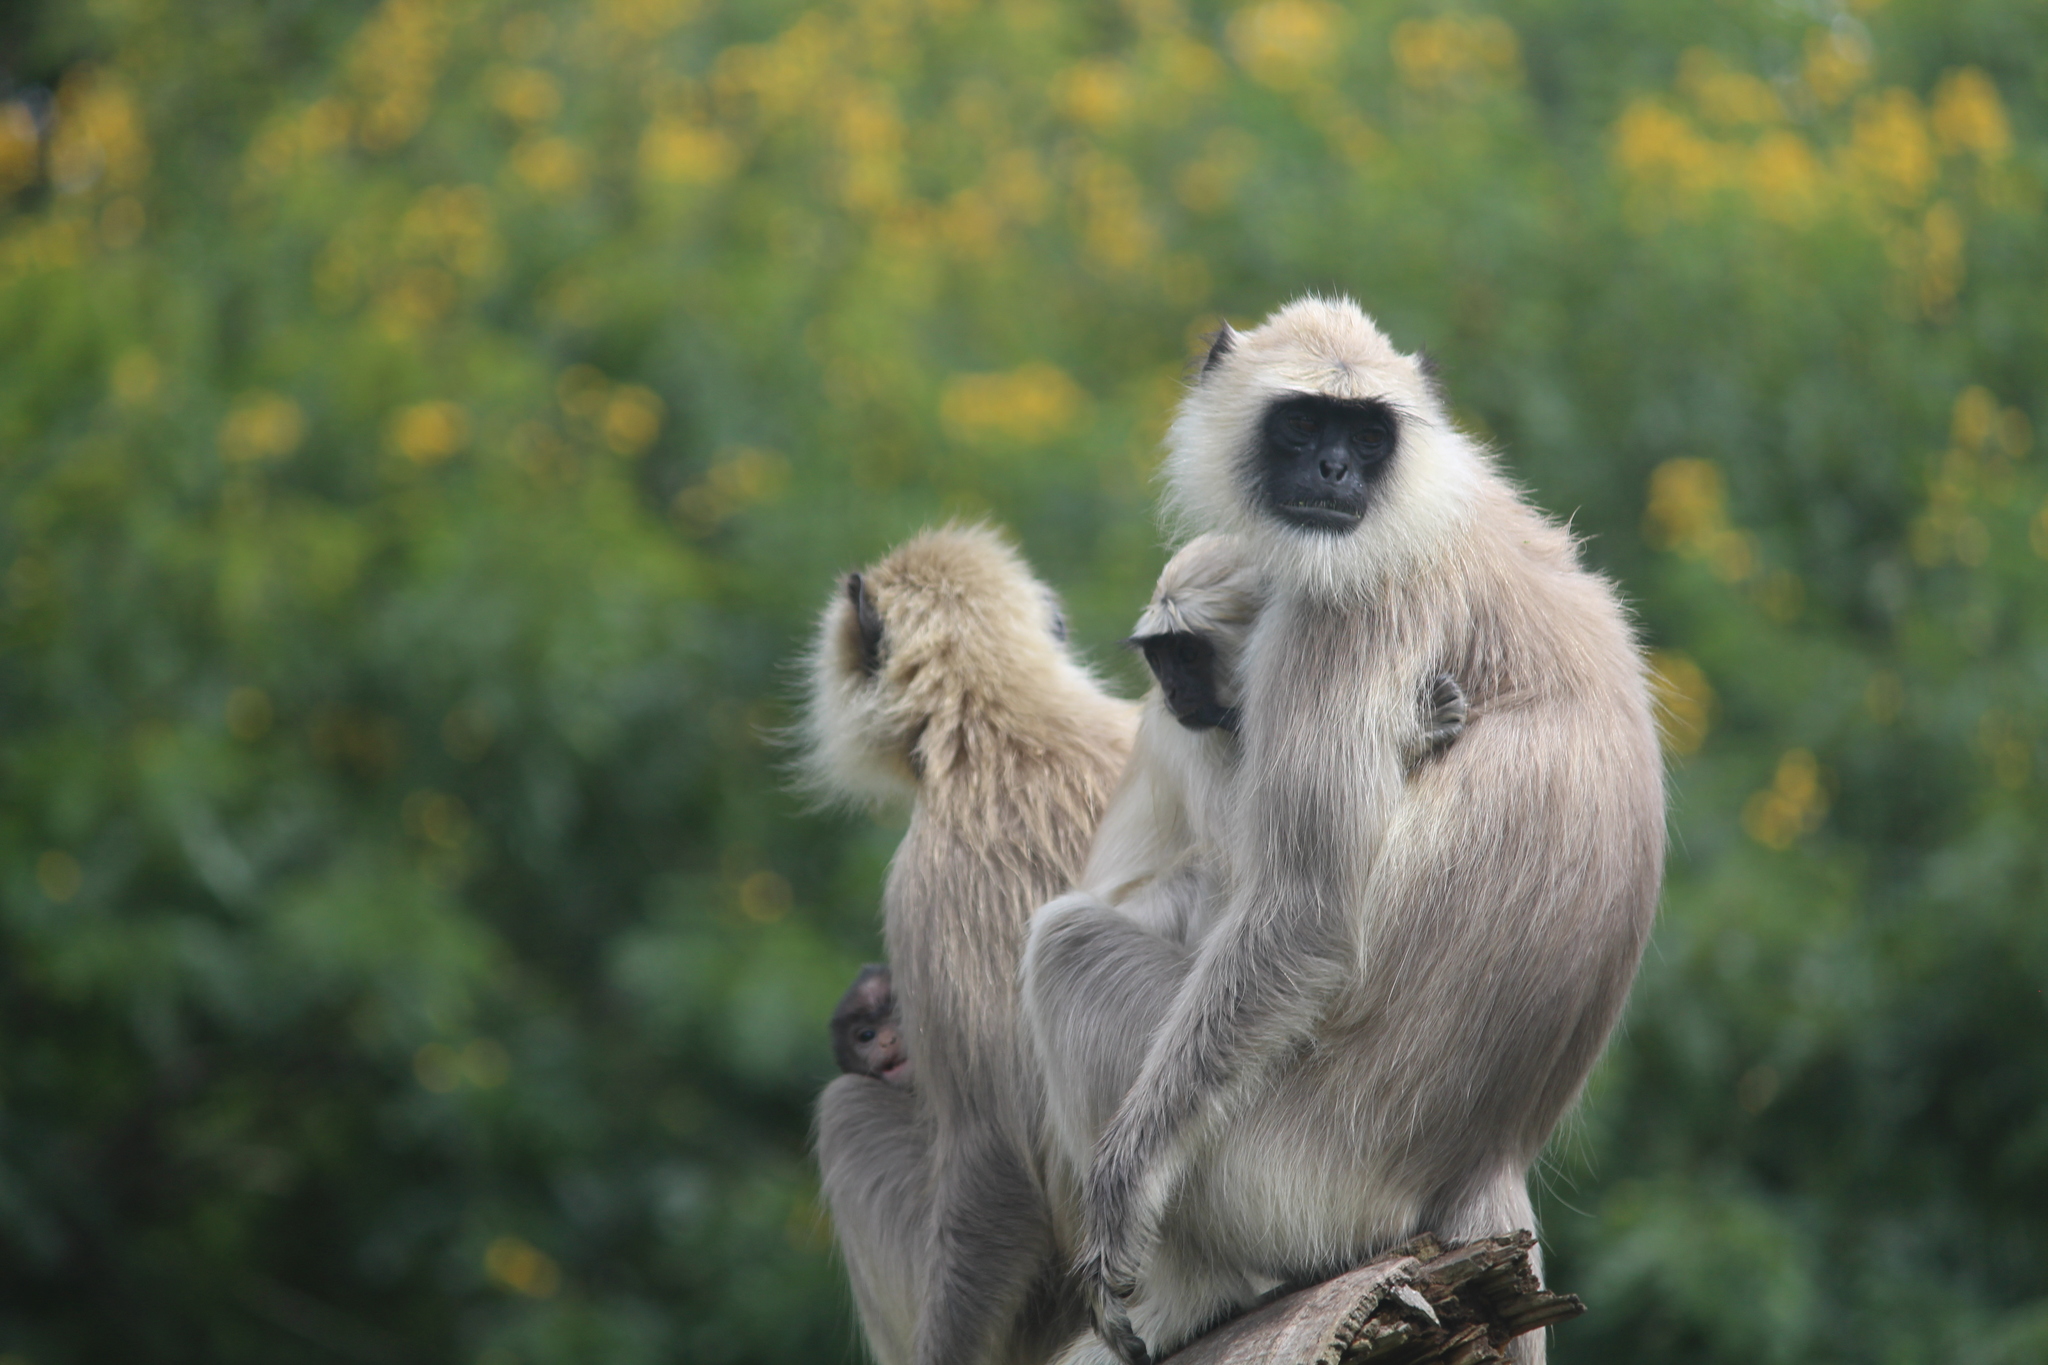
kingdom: Animalia
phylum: Chordata
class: Mammalia
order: Primates
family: Cercopithecidae
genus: Semnopithecus
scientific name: Semnopithecus priam
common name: Tufted gray langur
